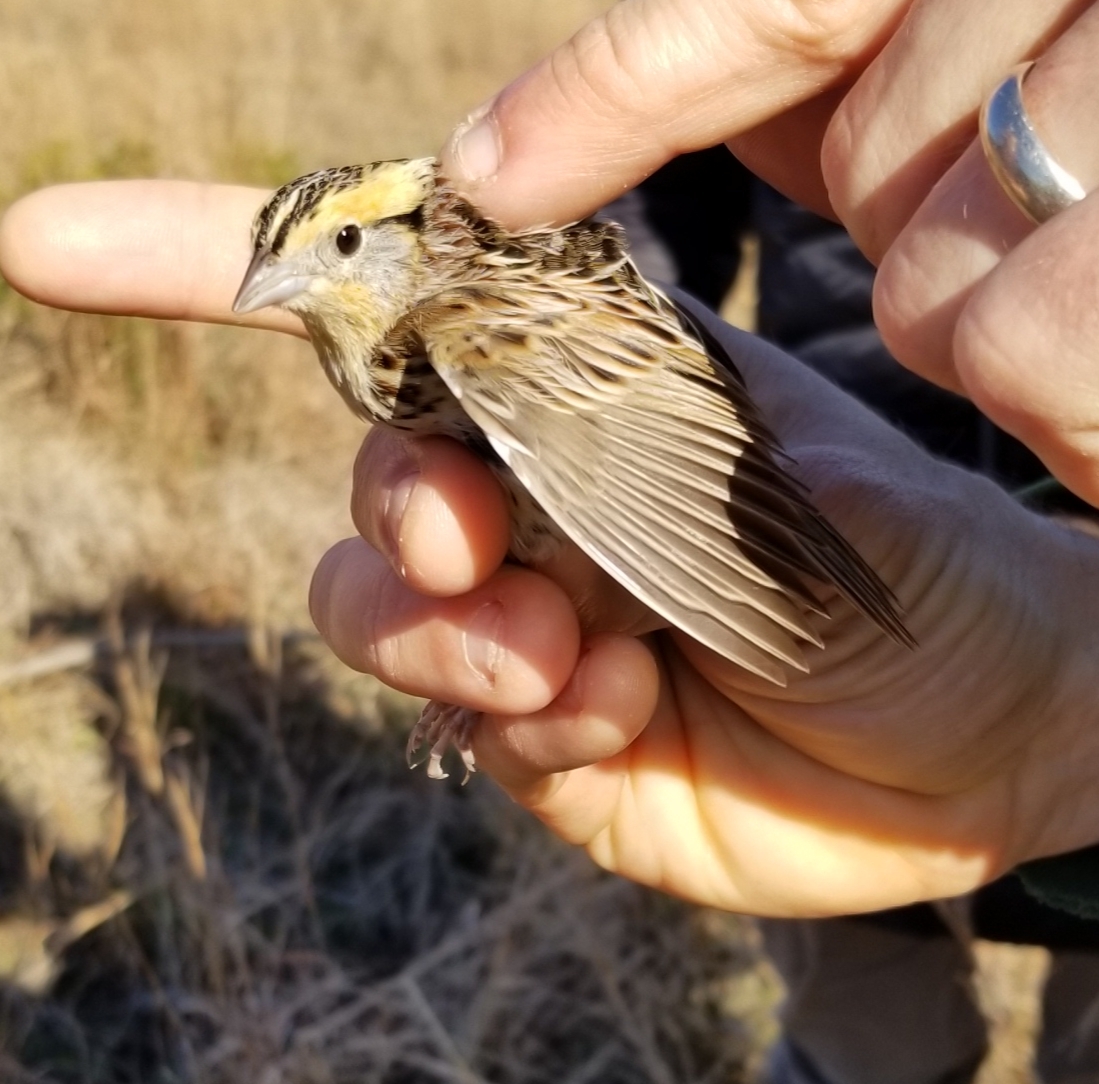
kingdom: Animalia
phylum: Chordata
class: Aves
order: Passeriformes
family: Passerellidae
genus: Ammospiza
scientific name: Ammospiza leconteii
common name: Le conte's sparrow
